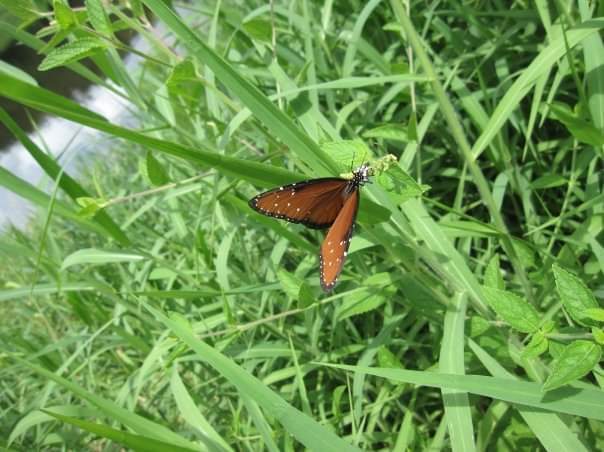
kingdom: Animalia
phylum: Arthropoda
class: Insecta
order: Lepidoptera
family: Nymphalidae
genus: Danaus
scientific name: Danaus gilippus
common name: Queen
